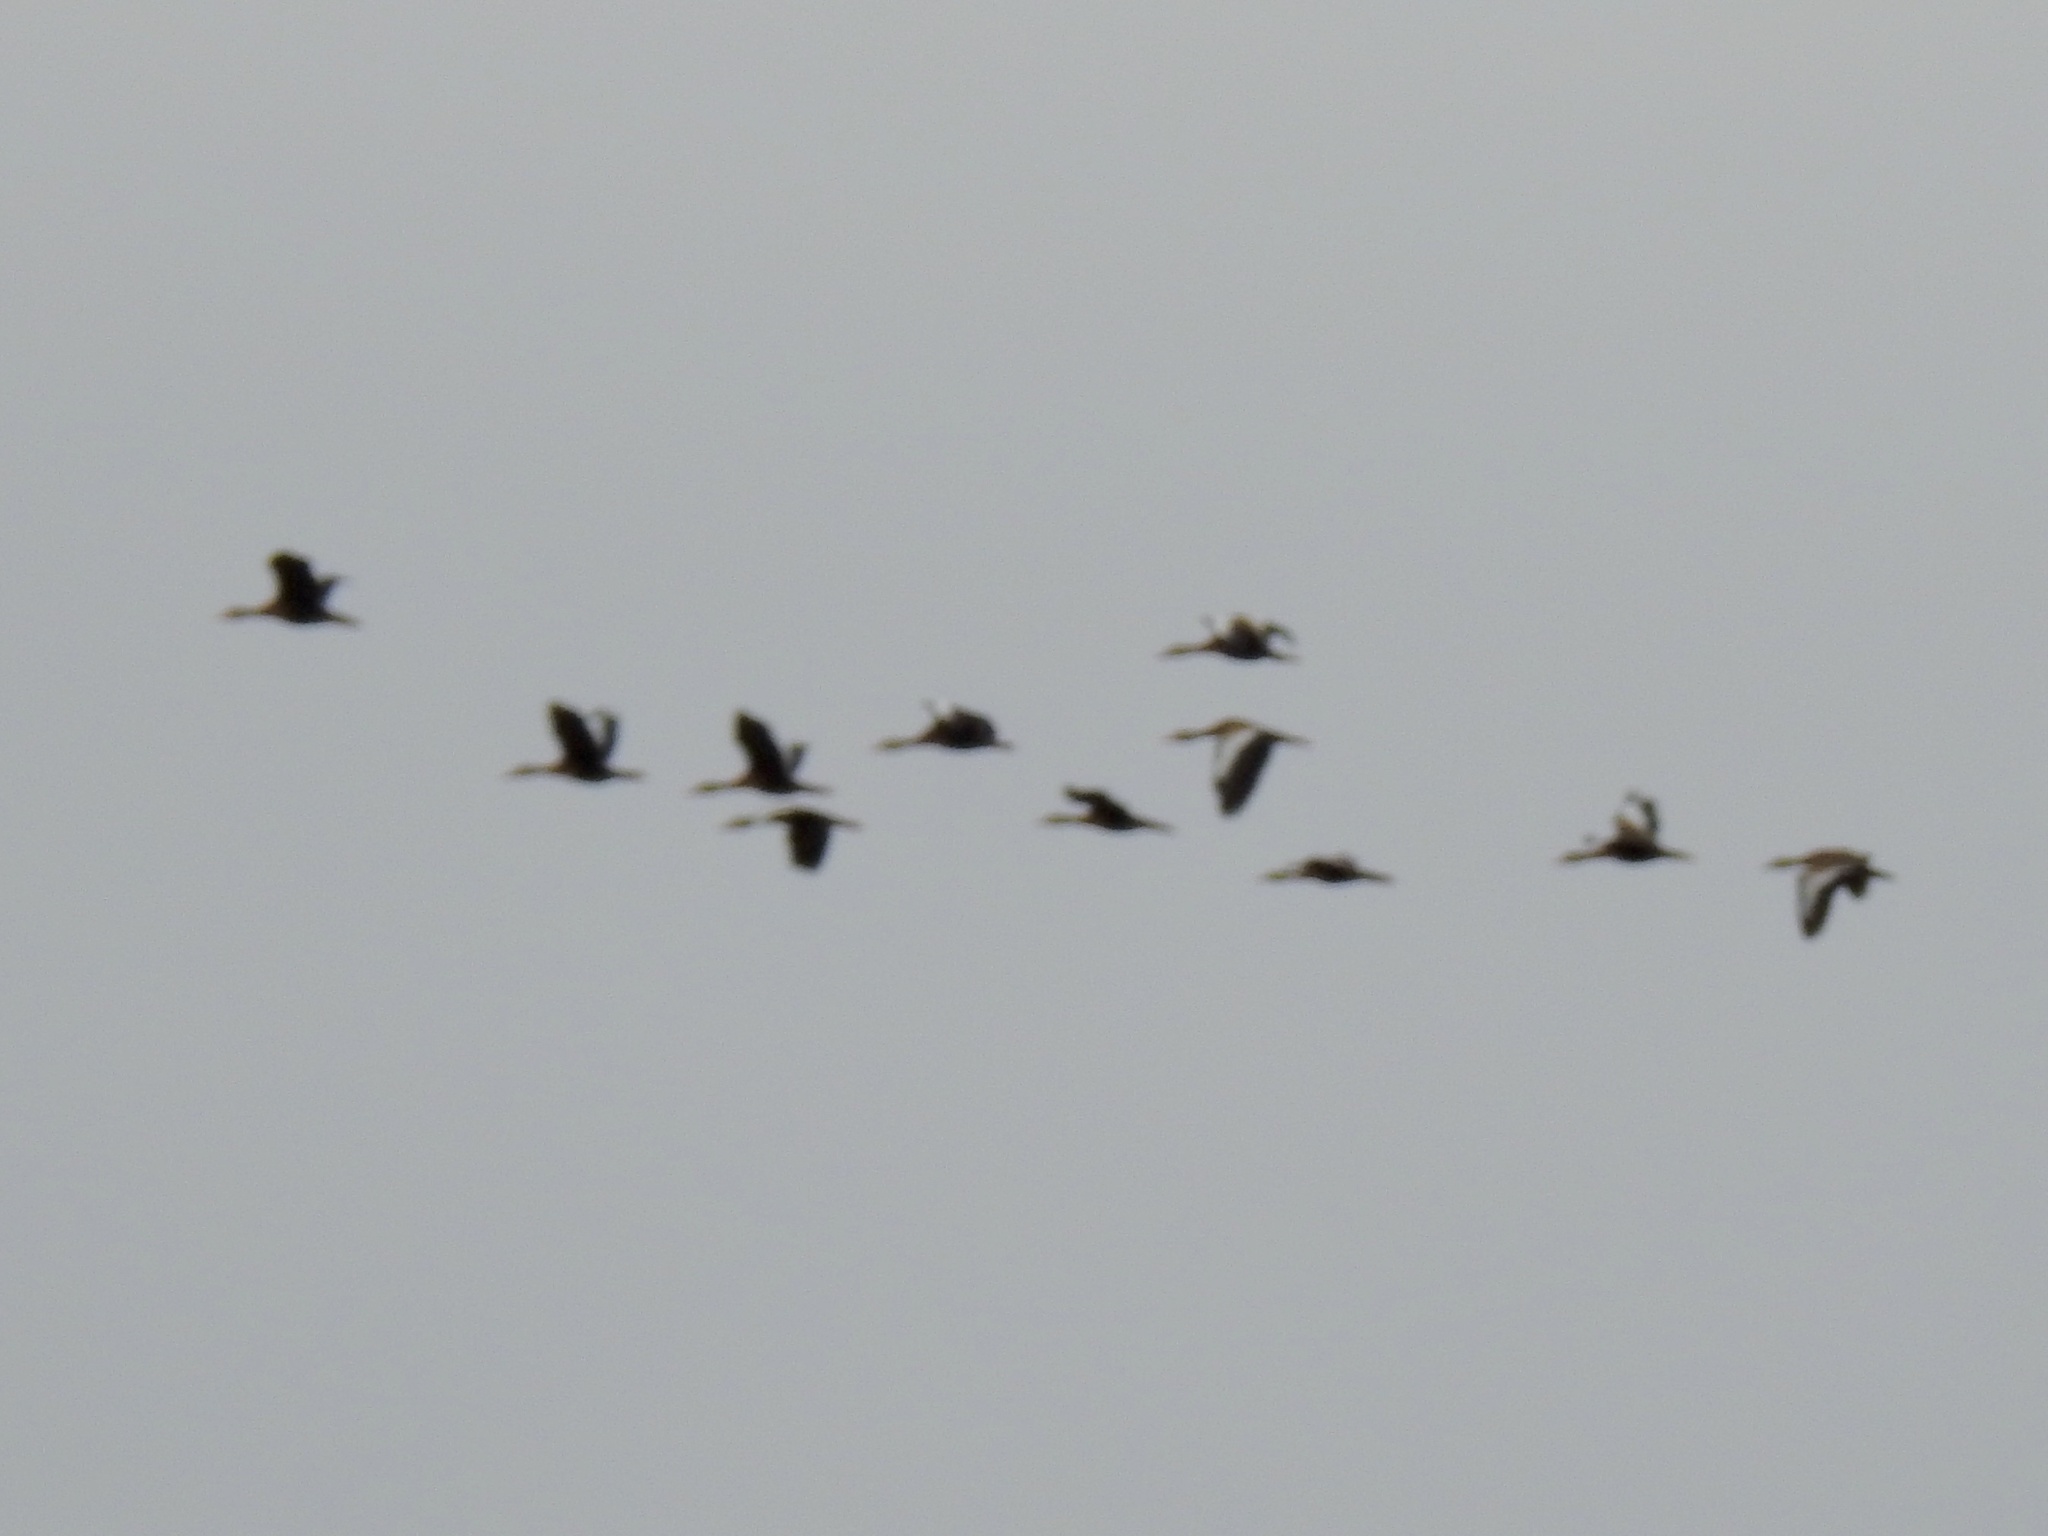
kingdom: Animalia
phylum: Chordata
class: Aves
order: Anseriformes
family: Anatidae
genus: Dendrocygna
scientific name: Dendrocygna autumnalis
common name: Black-bellied whistling duck
